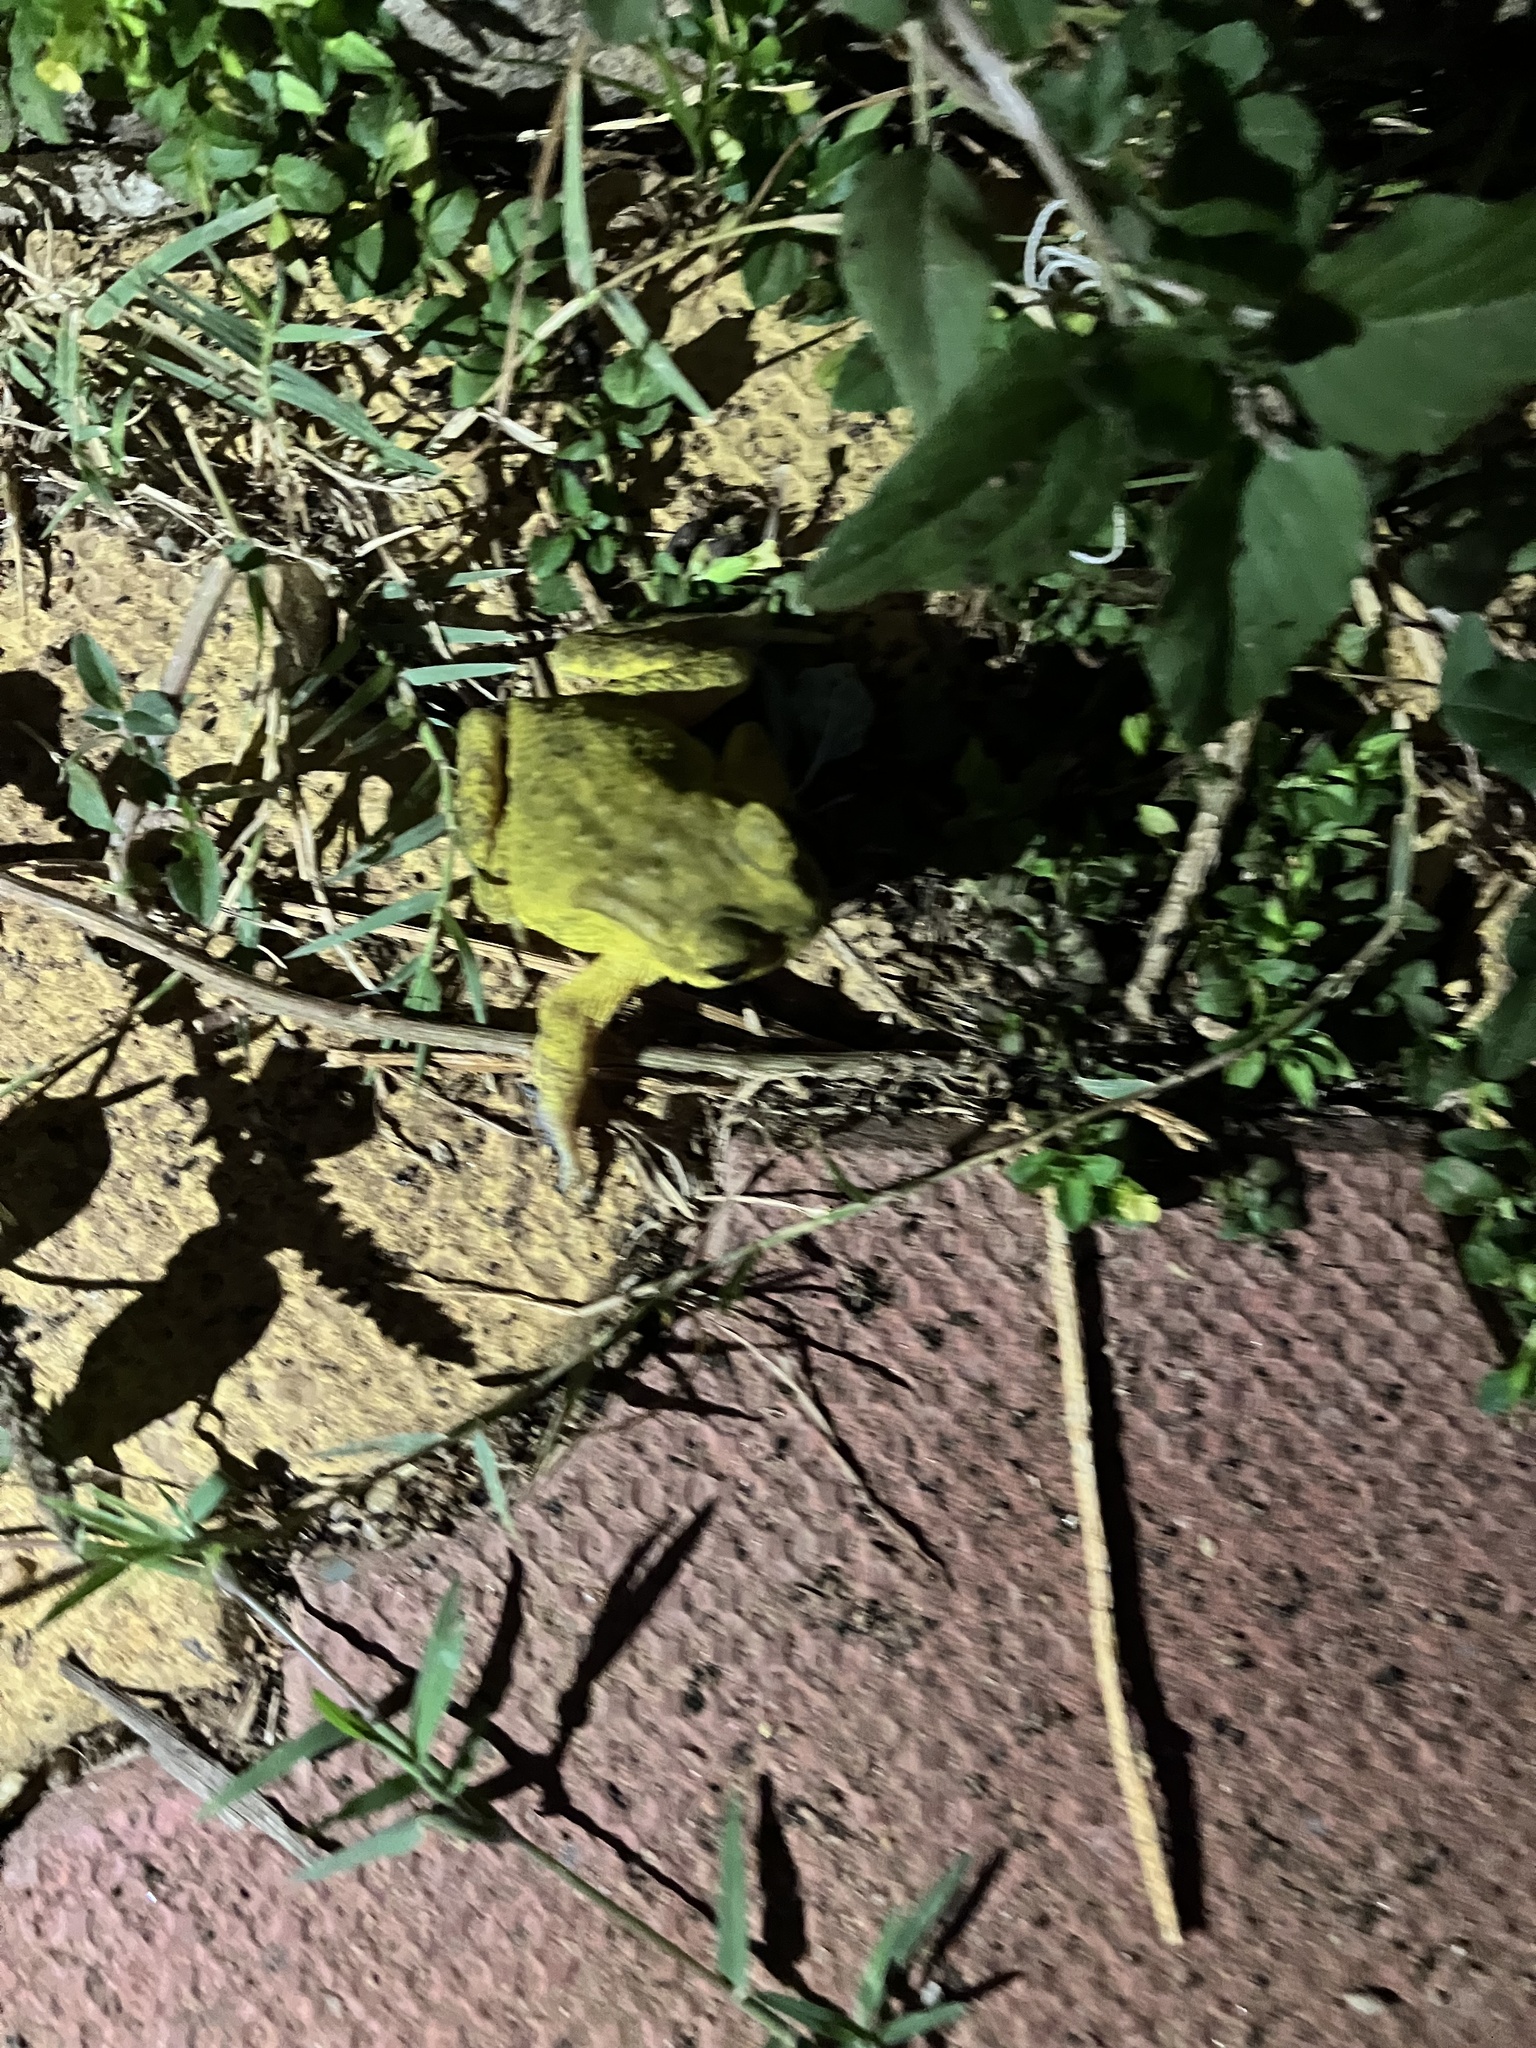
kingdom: Animalia
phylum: Chordata
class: Amphibia
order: Anura
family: Bufonidae
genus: Duttaphrynus
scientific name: Duttaphrynus melanostictus
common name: Common sunda toad
